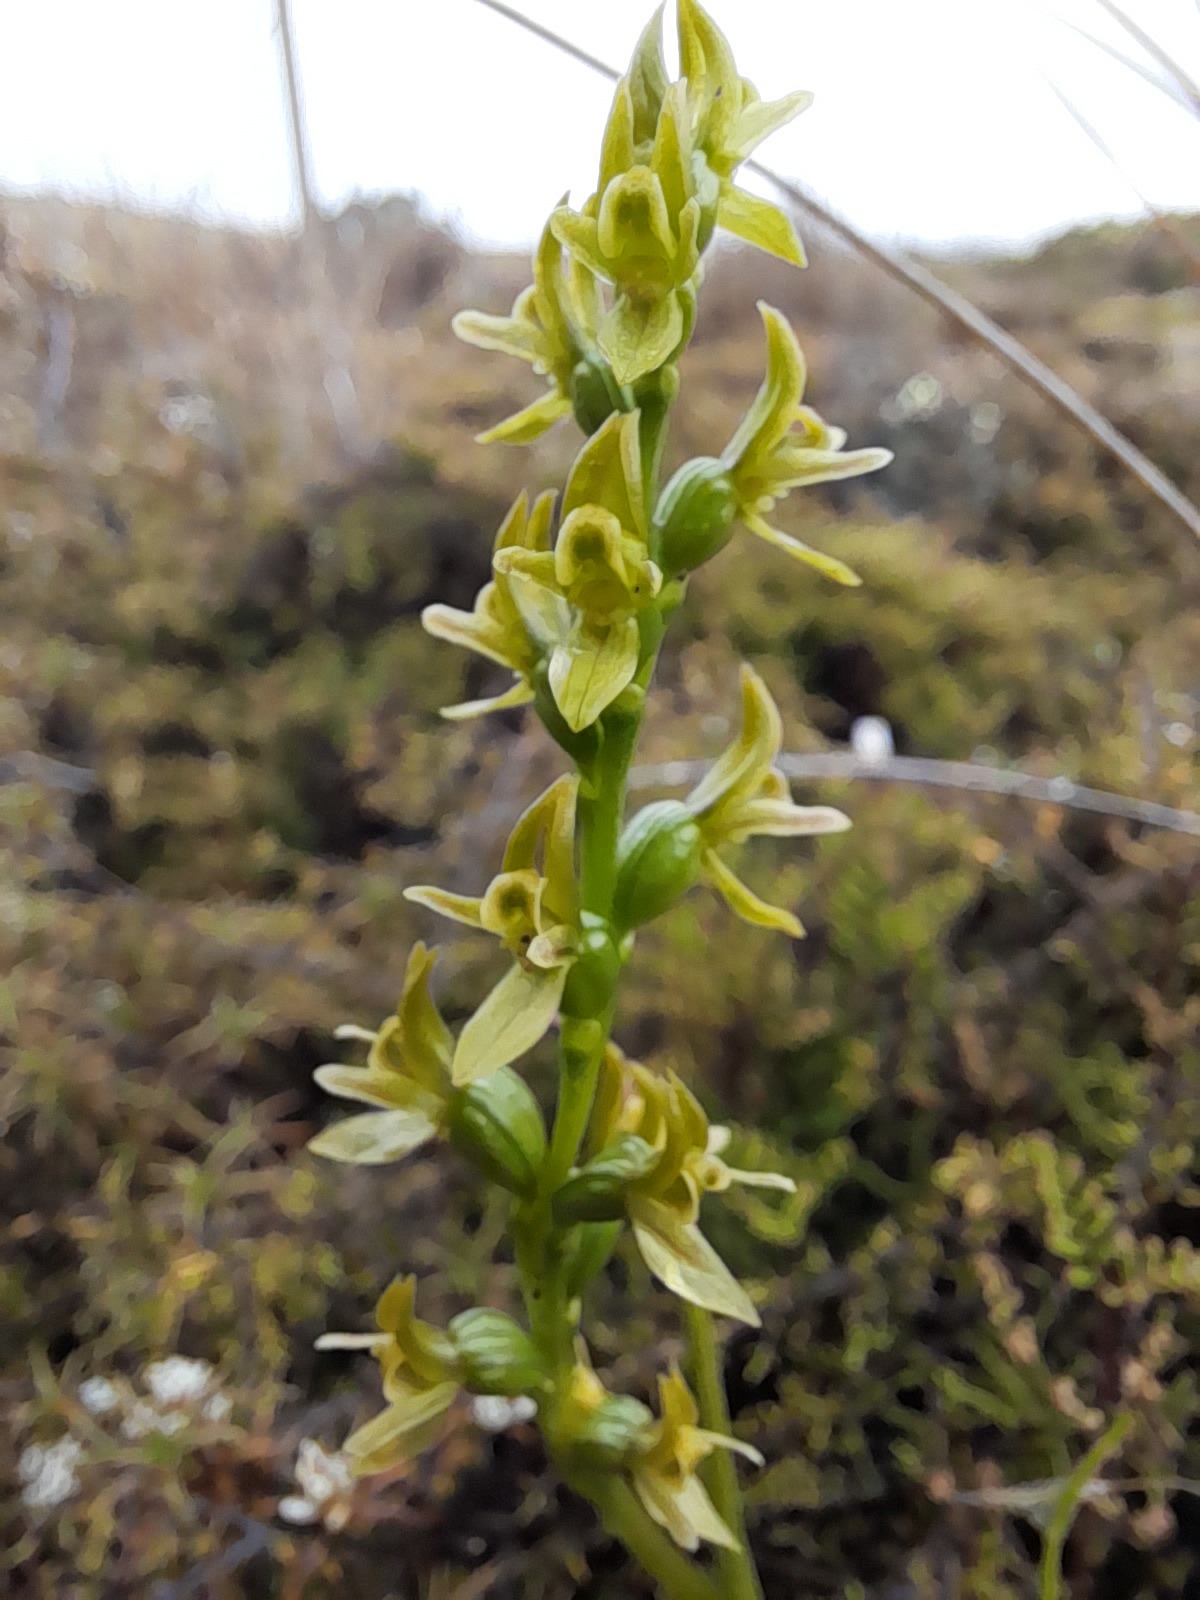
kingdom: Plantae
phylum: Tracheophyta
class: Liliopsida
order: Asparagales
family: Orchidaceae
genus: Prasophyllum
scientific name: Prasophyllum colensoi
